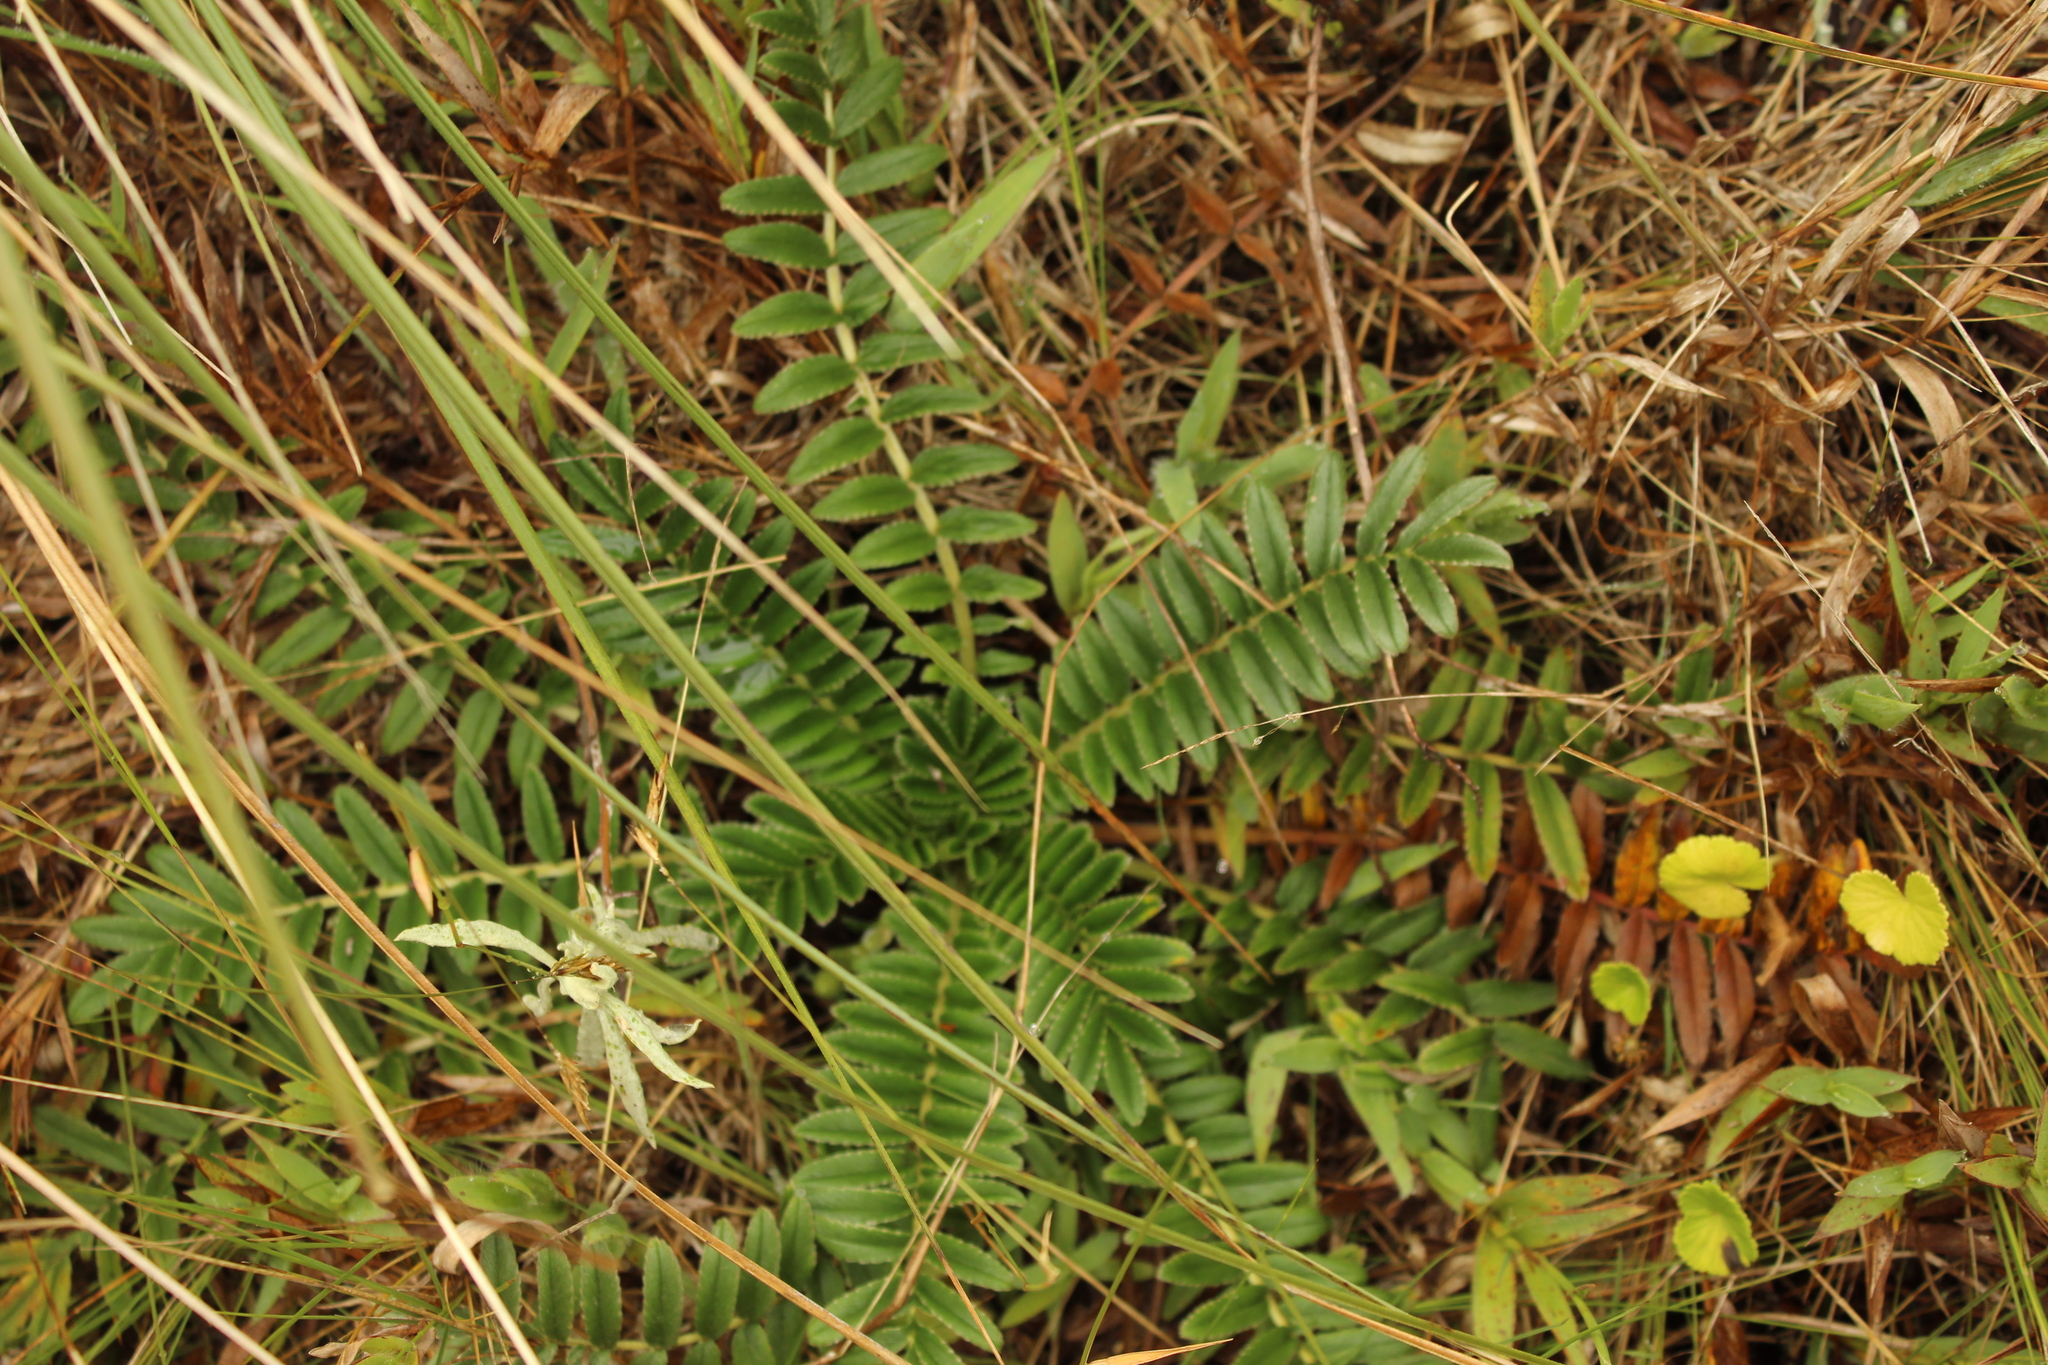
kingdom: Plantae
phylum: Tracheophyta
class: Magnoliopsida
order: Rosales
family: Rosaceae
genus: Acaena
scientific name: Acaena cylindristachya
